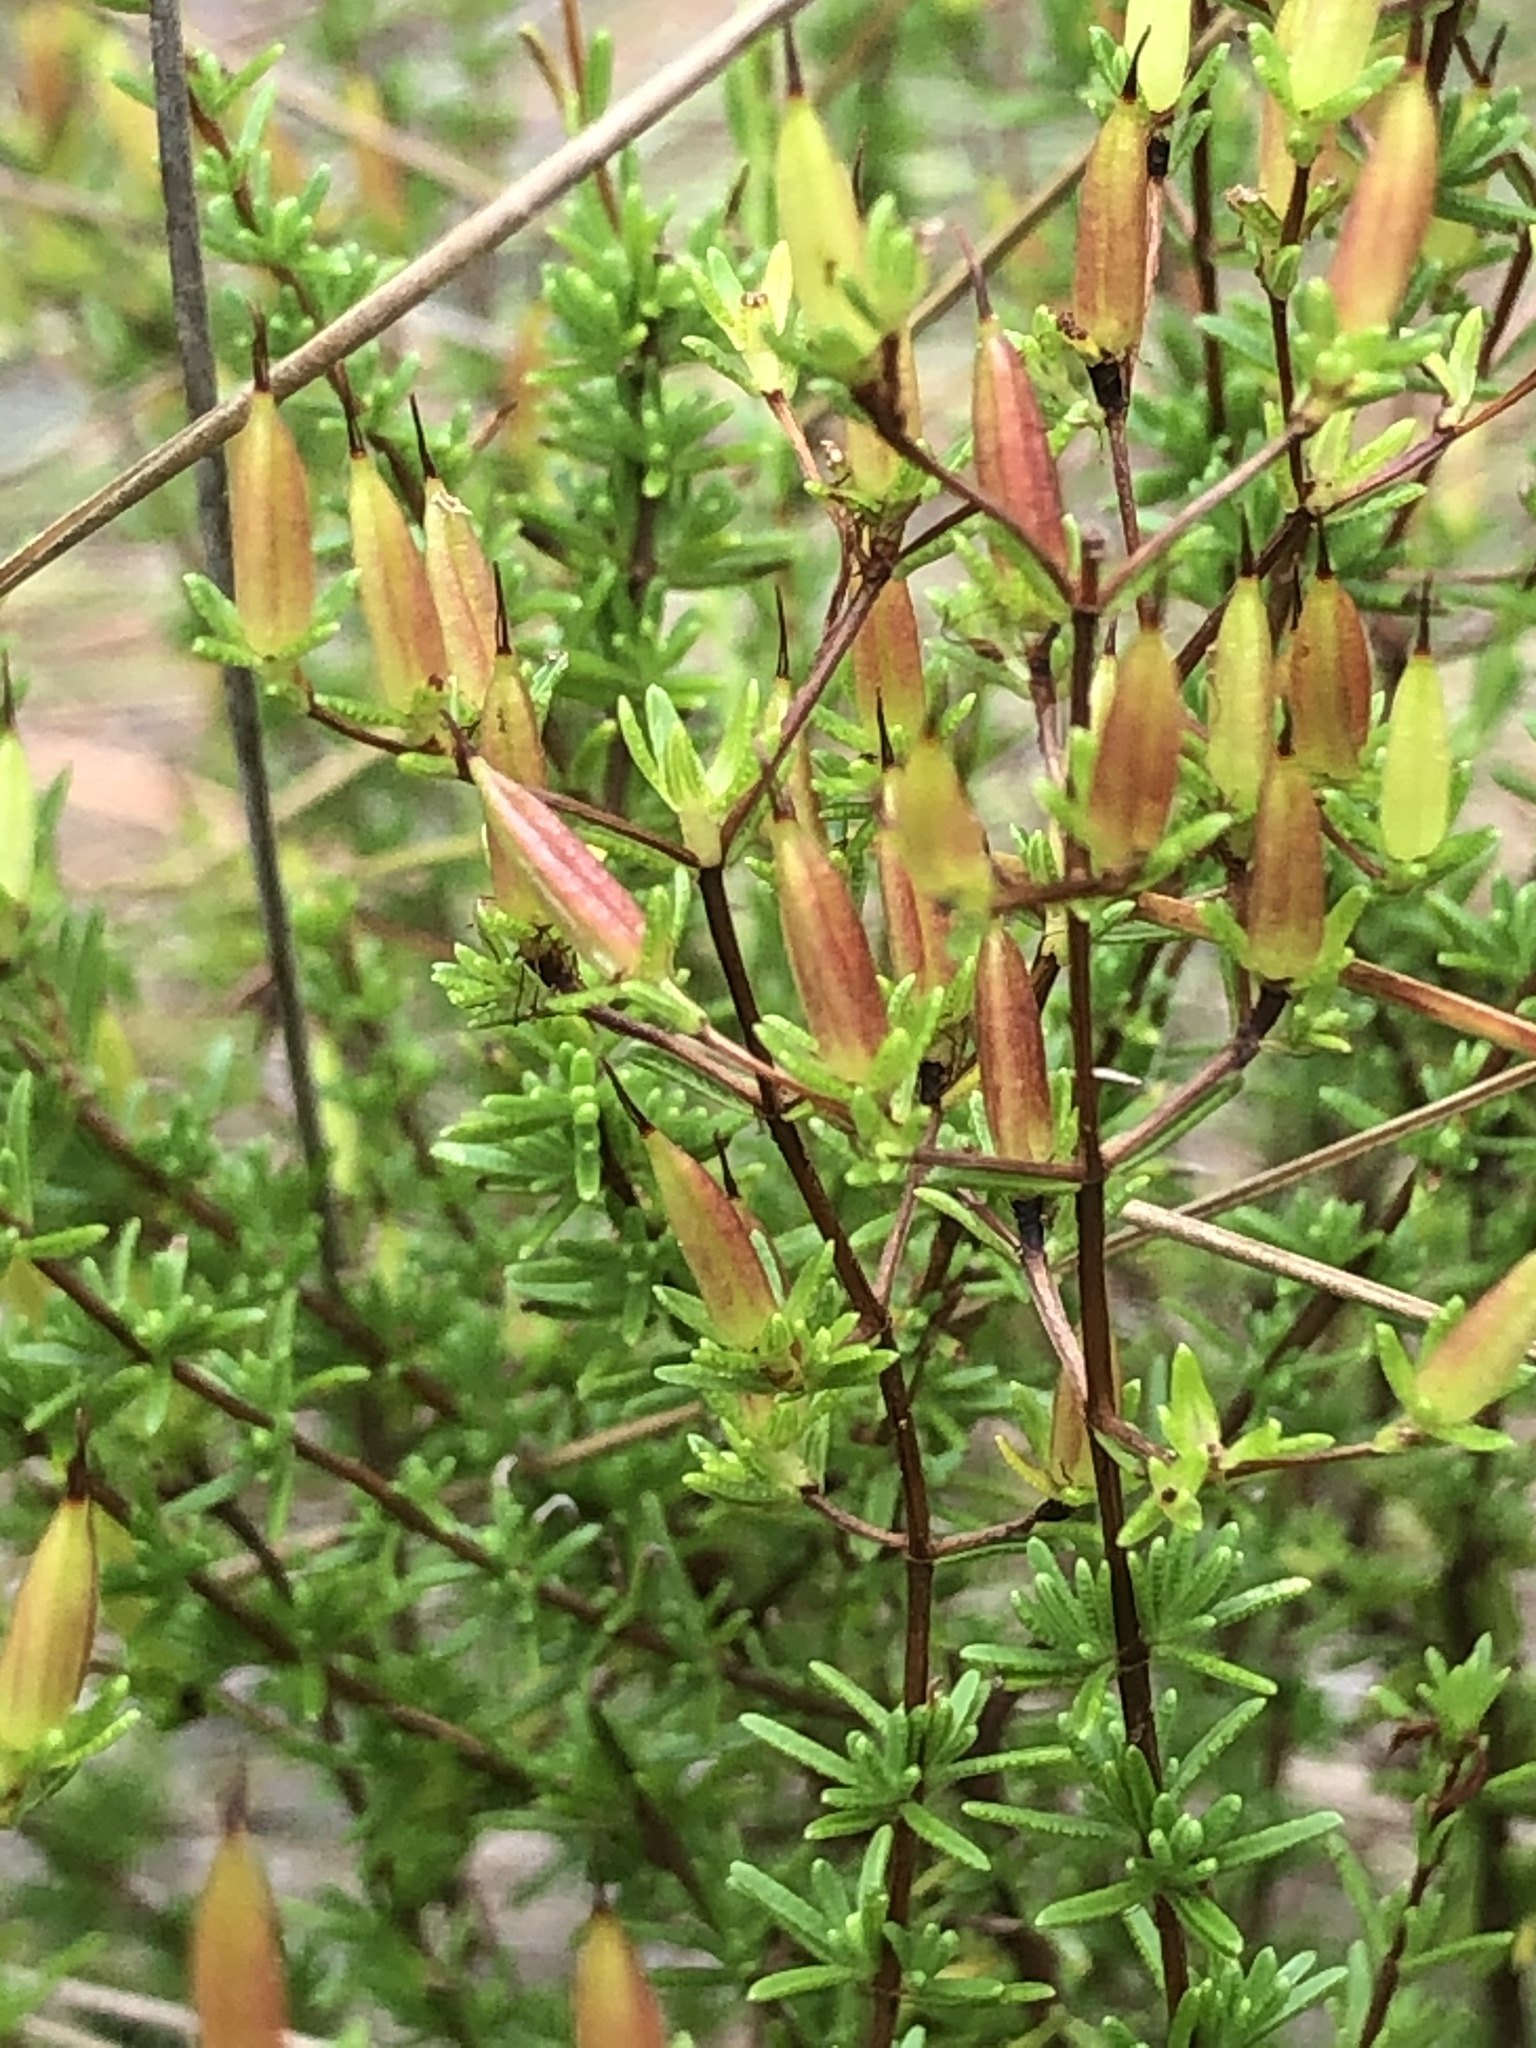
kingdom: Plantae
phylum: Tracheophyta
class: Magnoliopsida
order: Malpighiales
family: Hypericaceae
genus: Hypericum
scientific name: Hypericum tenuifolium
